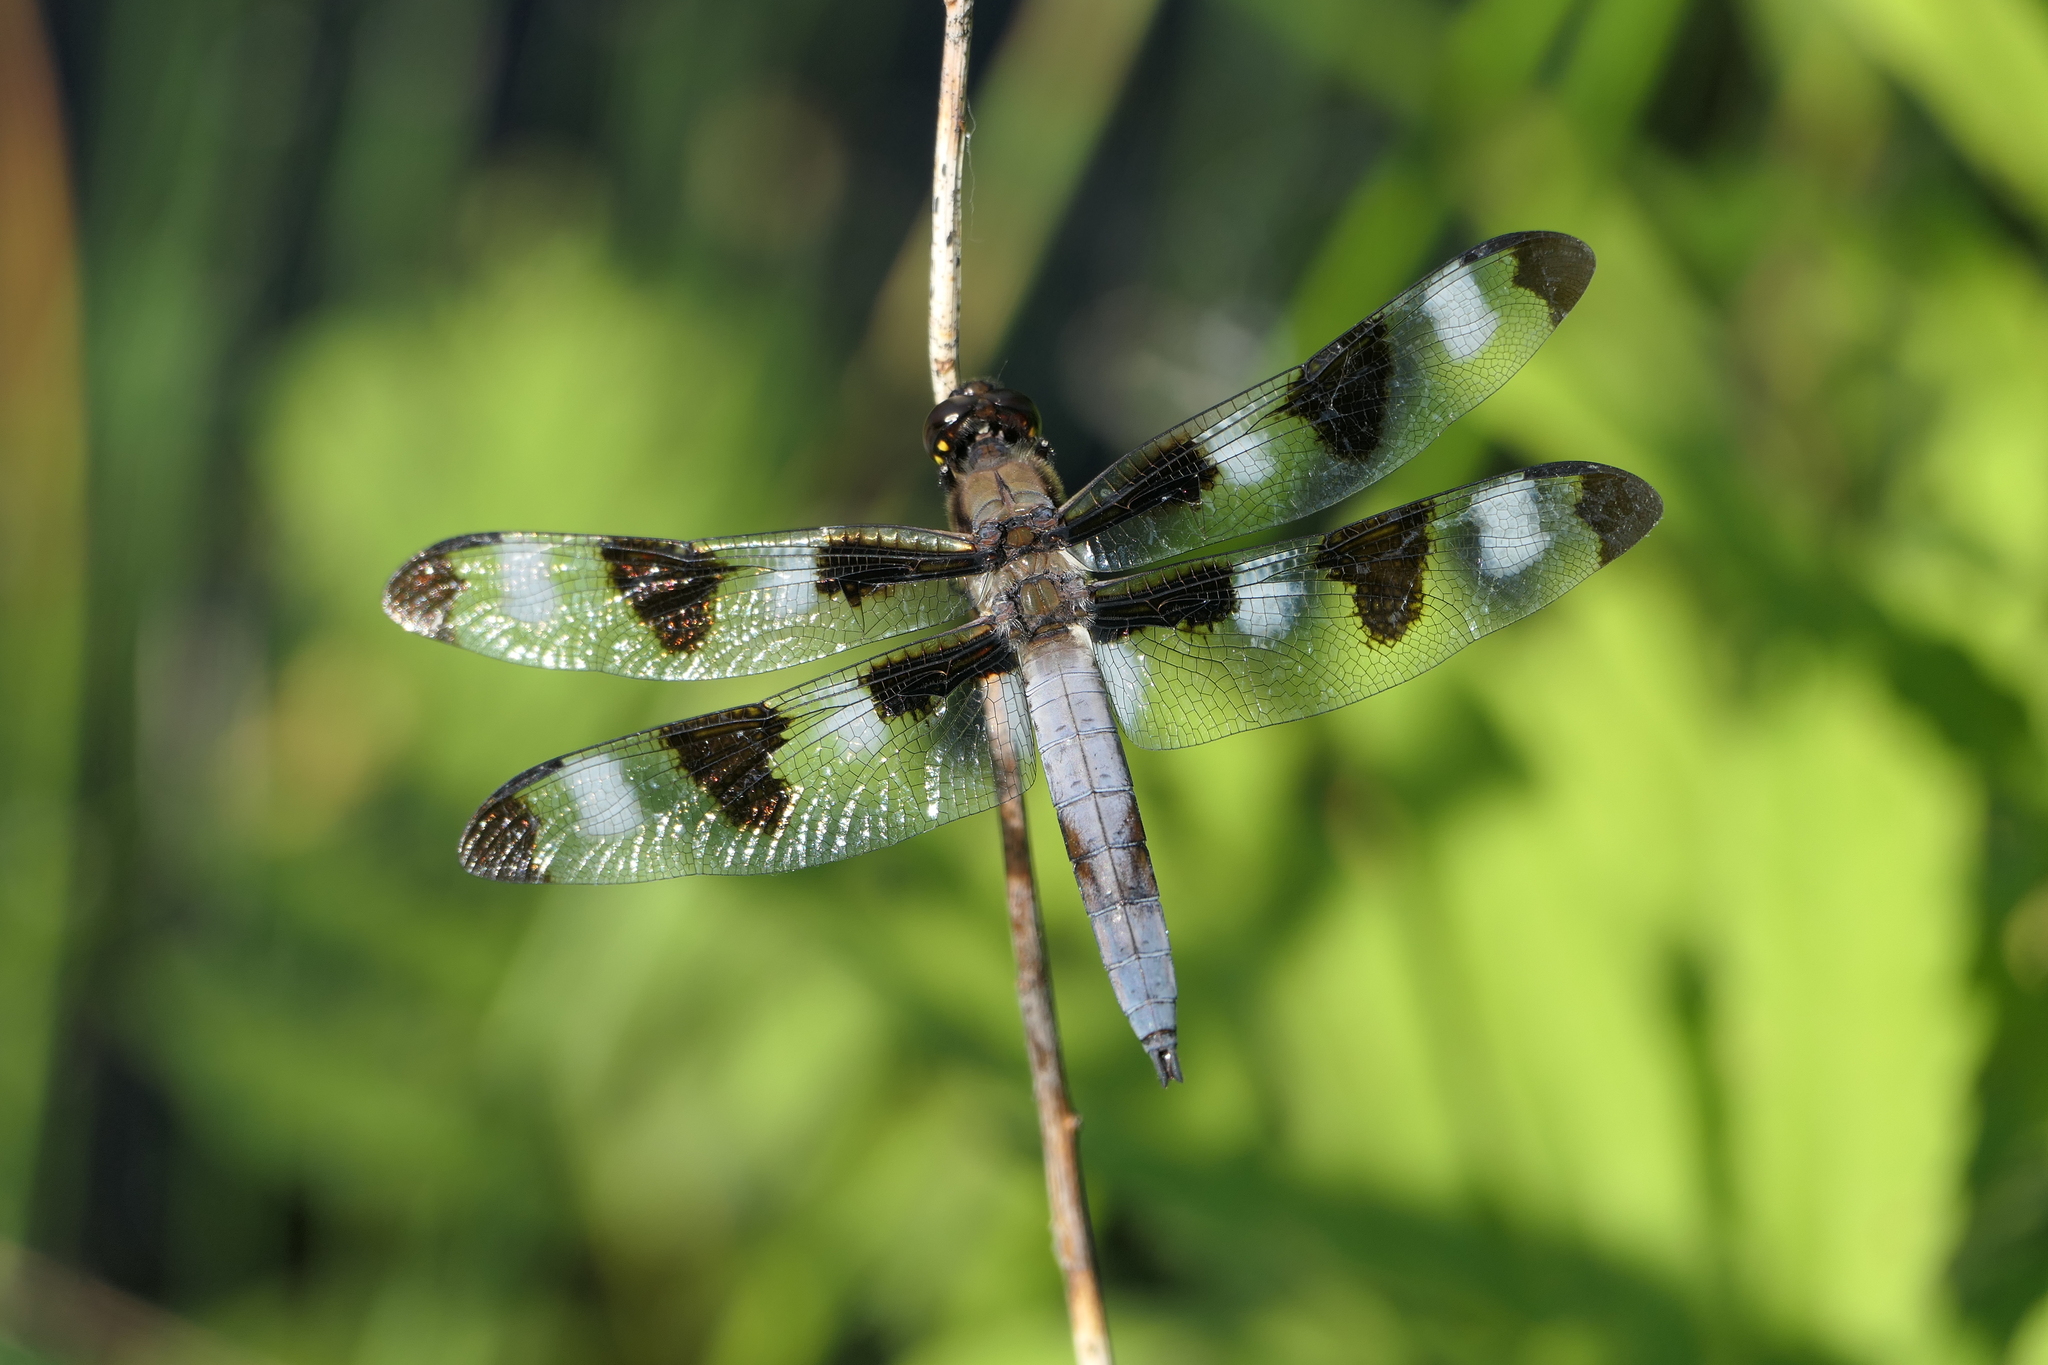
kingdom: Animalia
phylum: Arthropoda
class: Insecta
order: Odonata
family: Libellulidae
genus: Libellula
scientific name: Libellula pulchella
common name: Twelve-spotted skimmer
